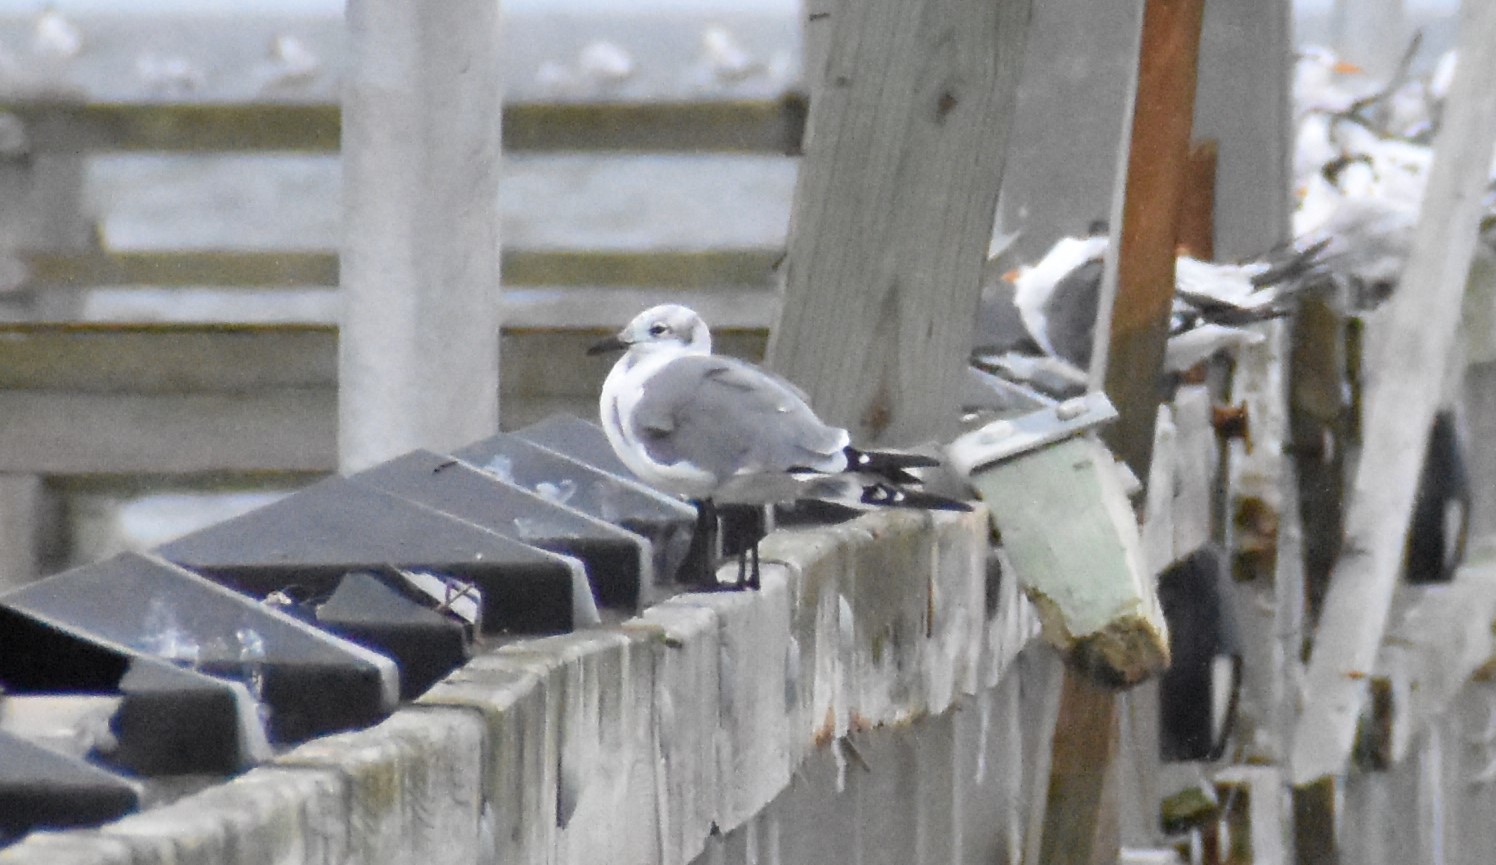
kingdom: Animalia
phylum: Chordata
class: Aves
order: Charadriiformes
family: Laridae
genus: Leucophaeus
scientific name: Leucophaeus atricilla
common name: Laughing gull
